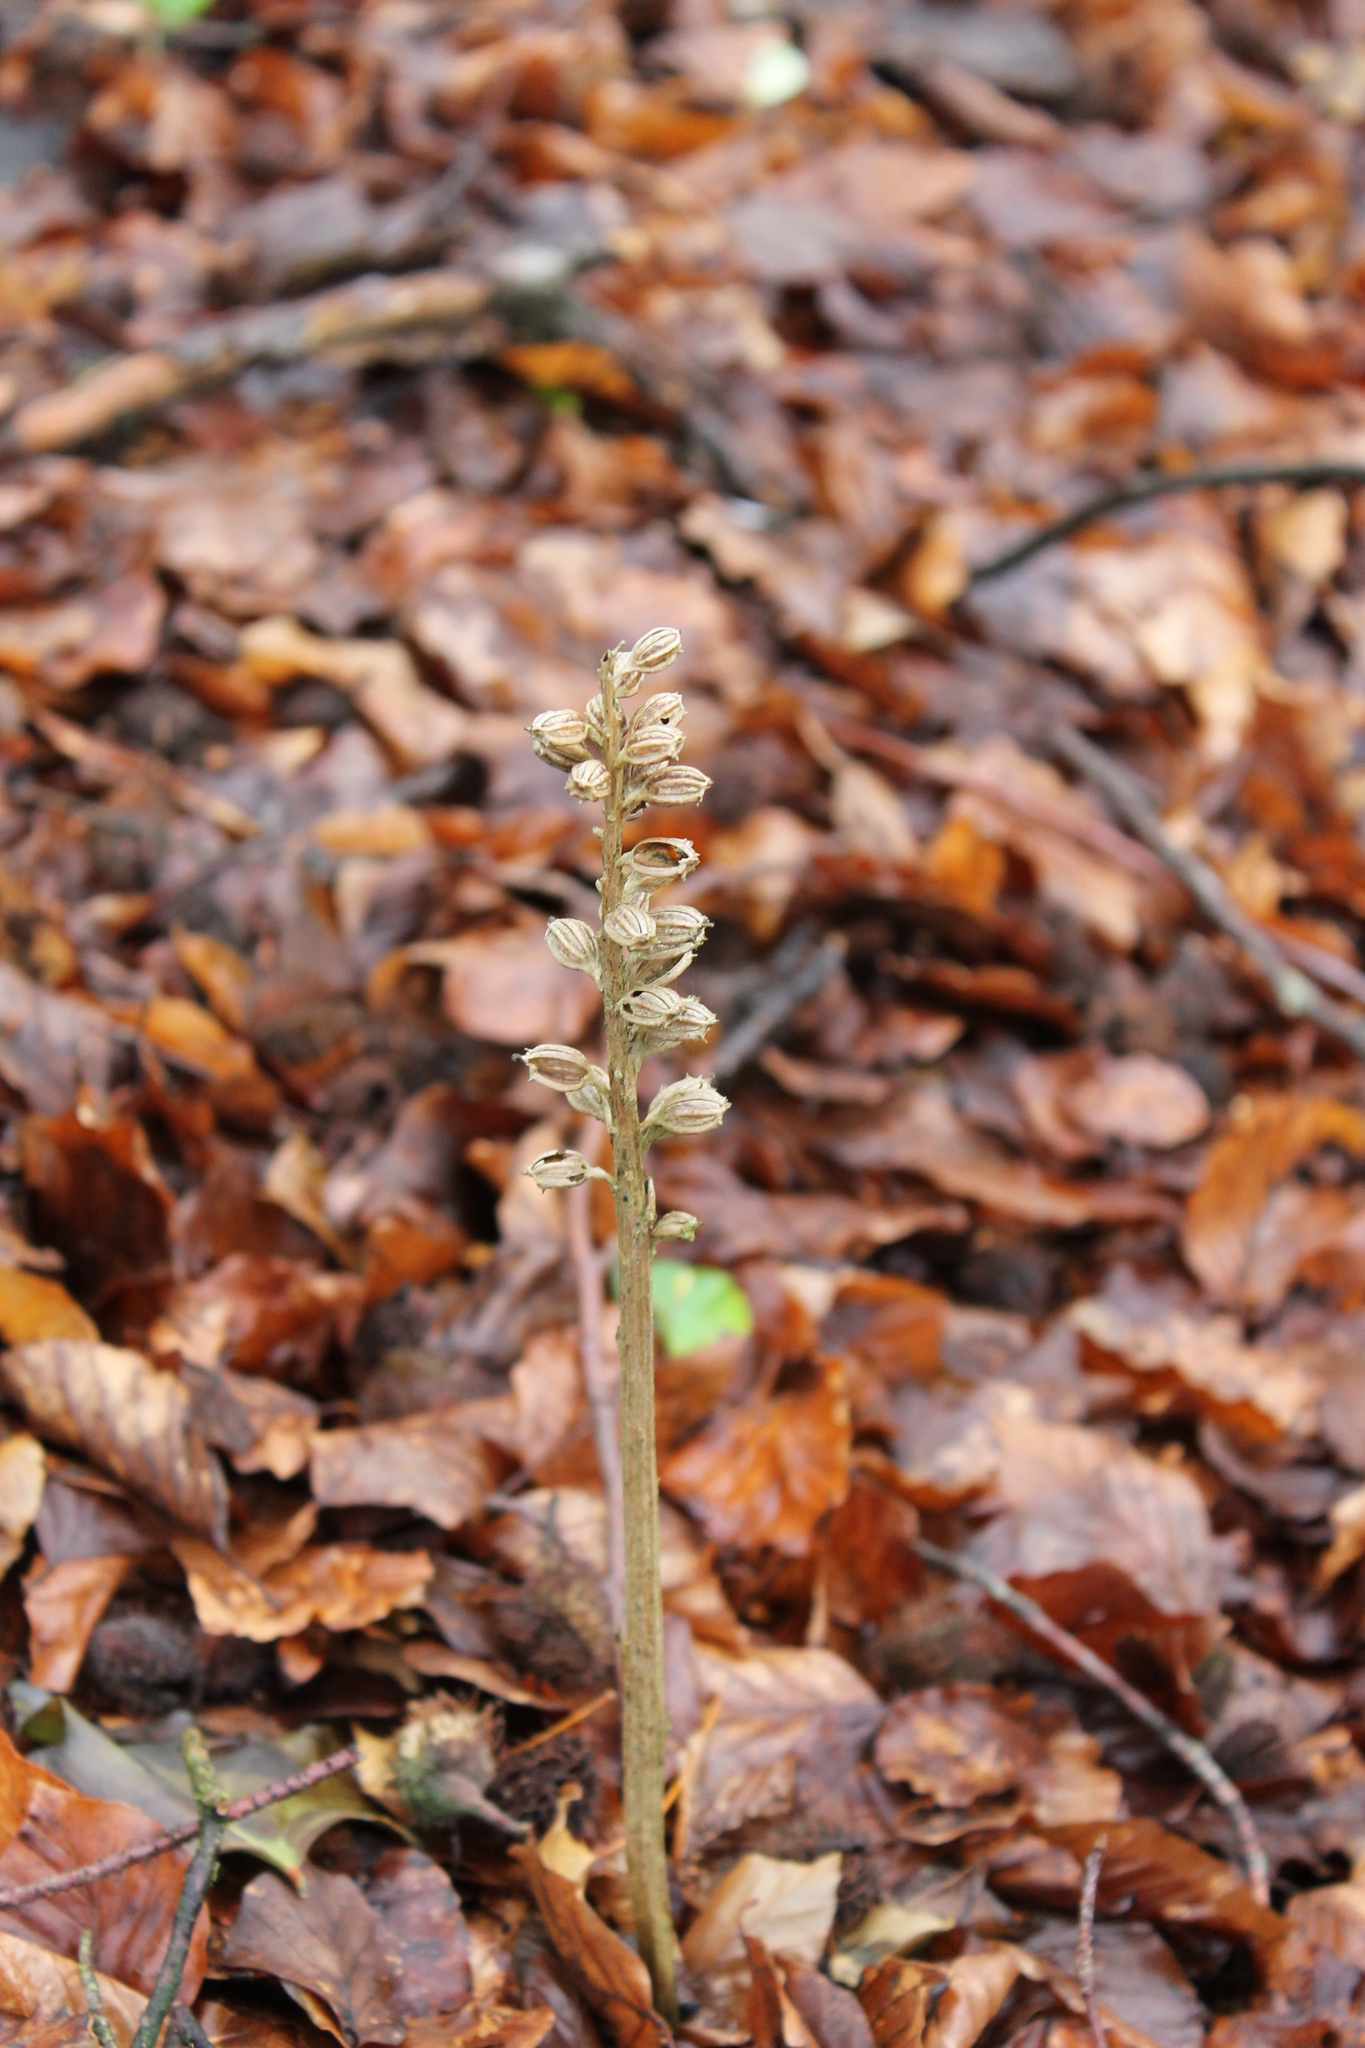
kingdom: Plantae
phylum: Tracheophyta
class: Liliopsida
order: Asparagales
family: Orchidaceae
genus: Neottia
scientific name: Neottia nidus-avis
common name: Bird's-nest orchid
